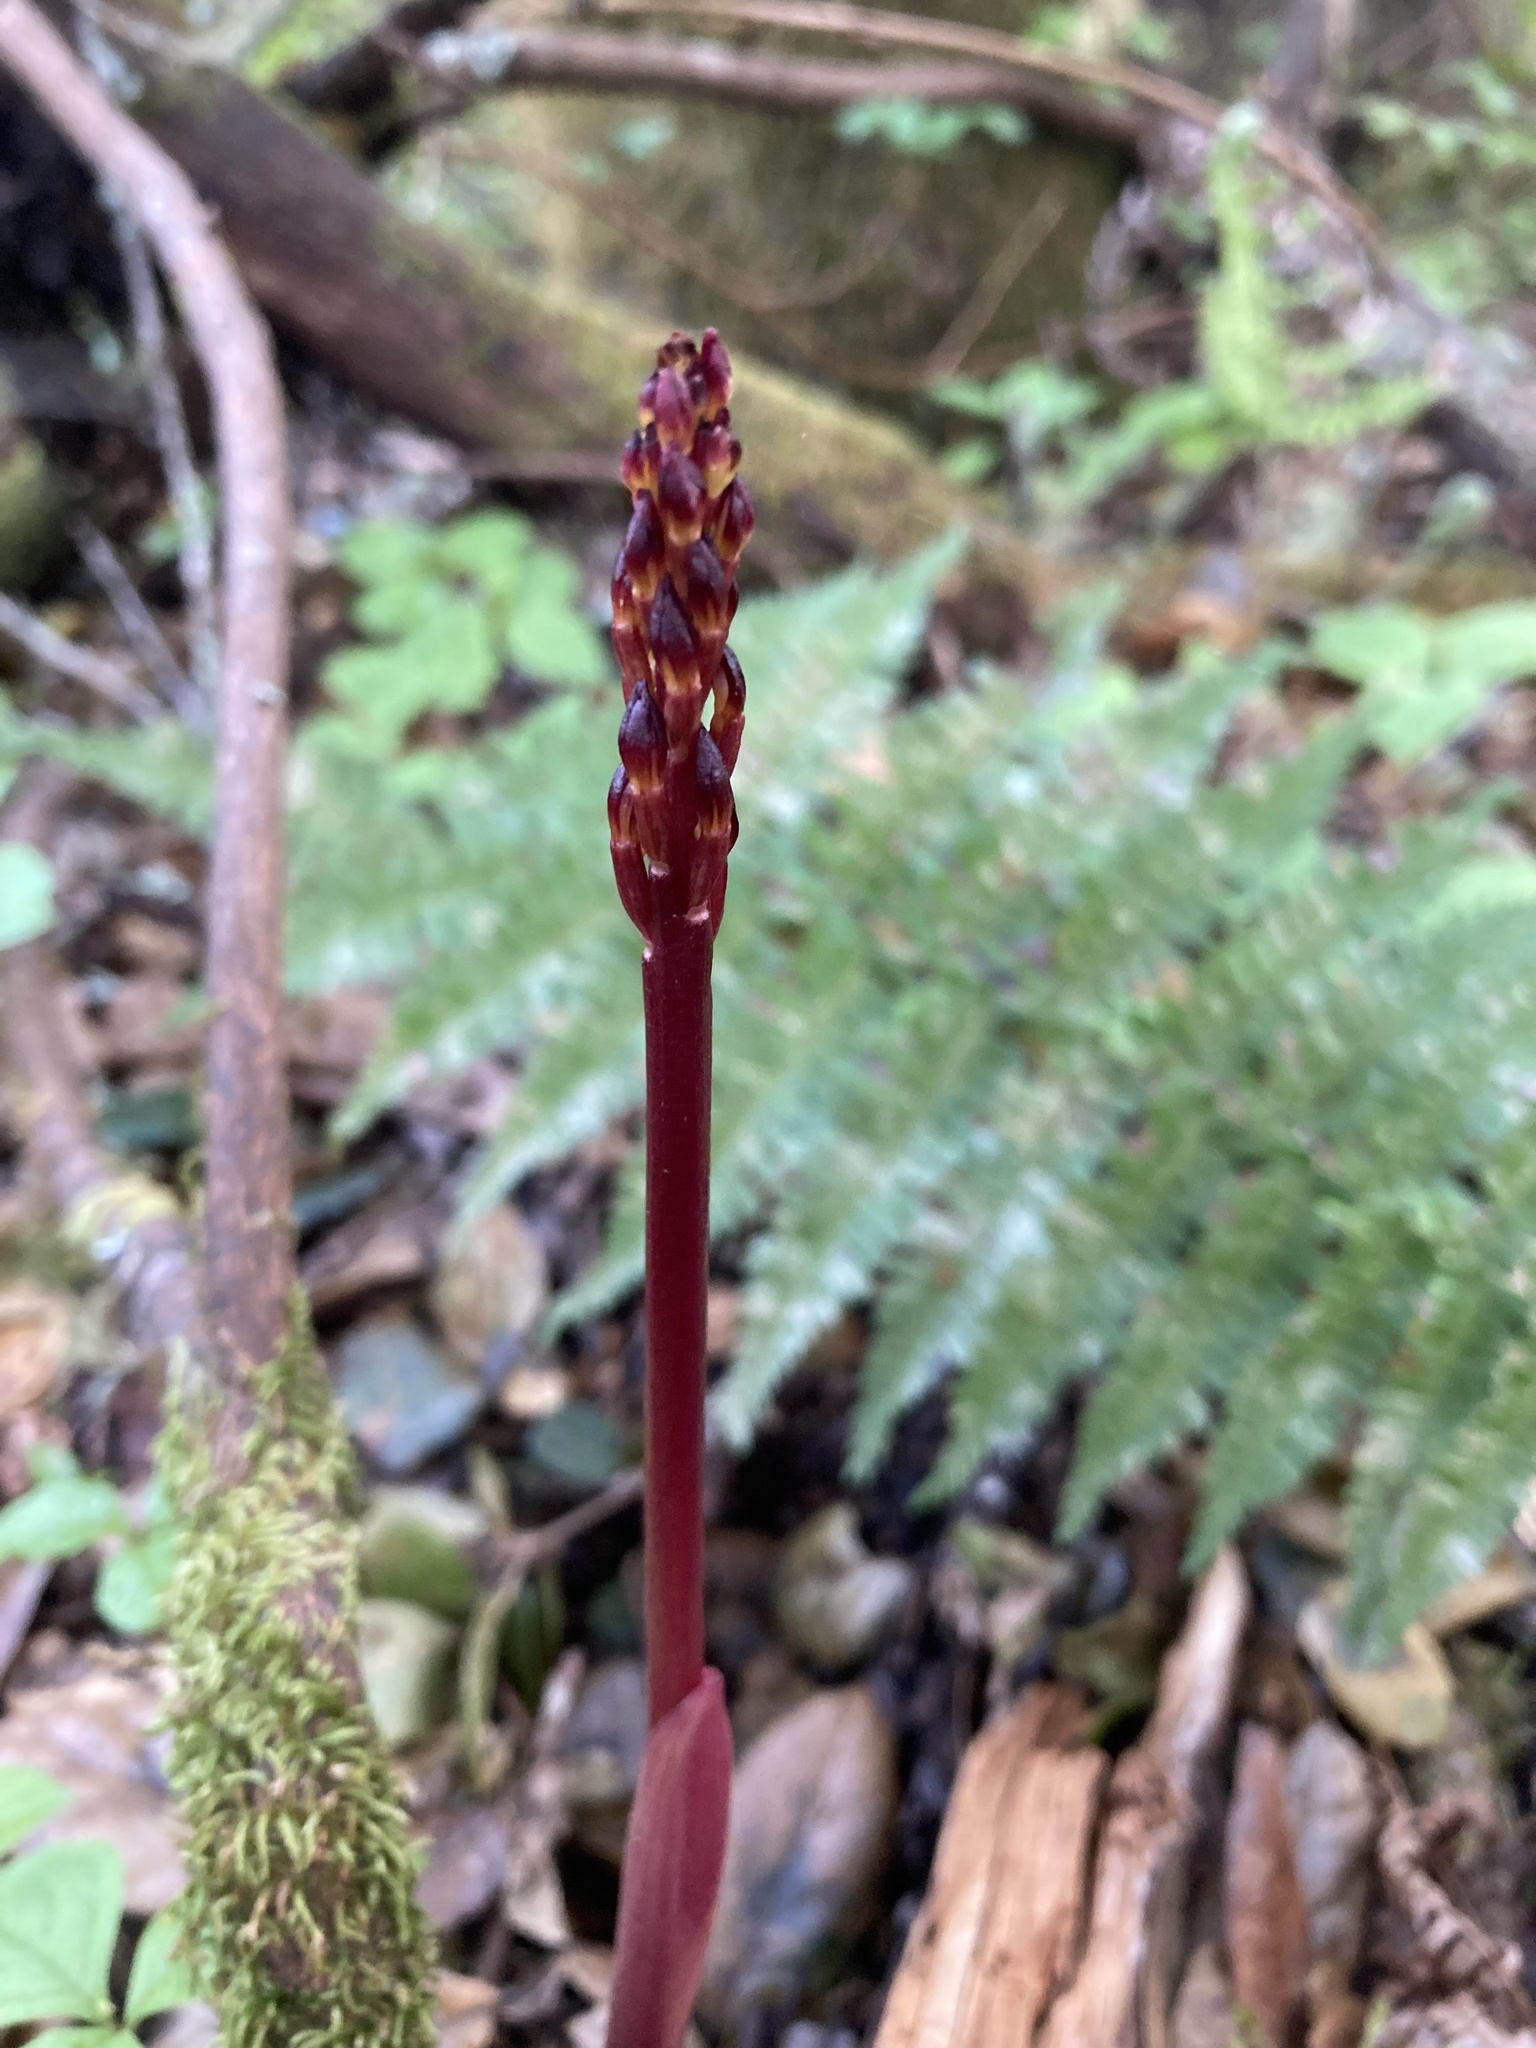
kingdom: Plantae
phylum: Tracheophyta
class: Liliopsida
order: Asparagales
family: Orchidaceae
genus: Corallorhiza
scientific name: Corallorhiza maculata
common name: Spotted coralroot
